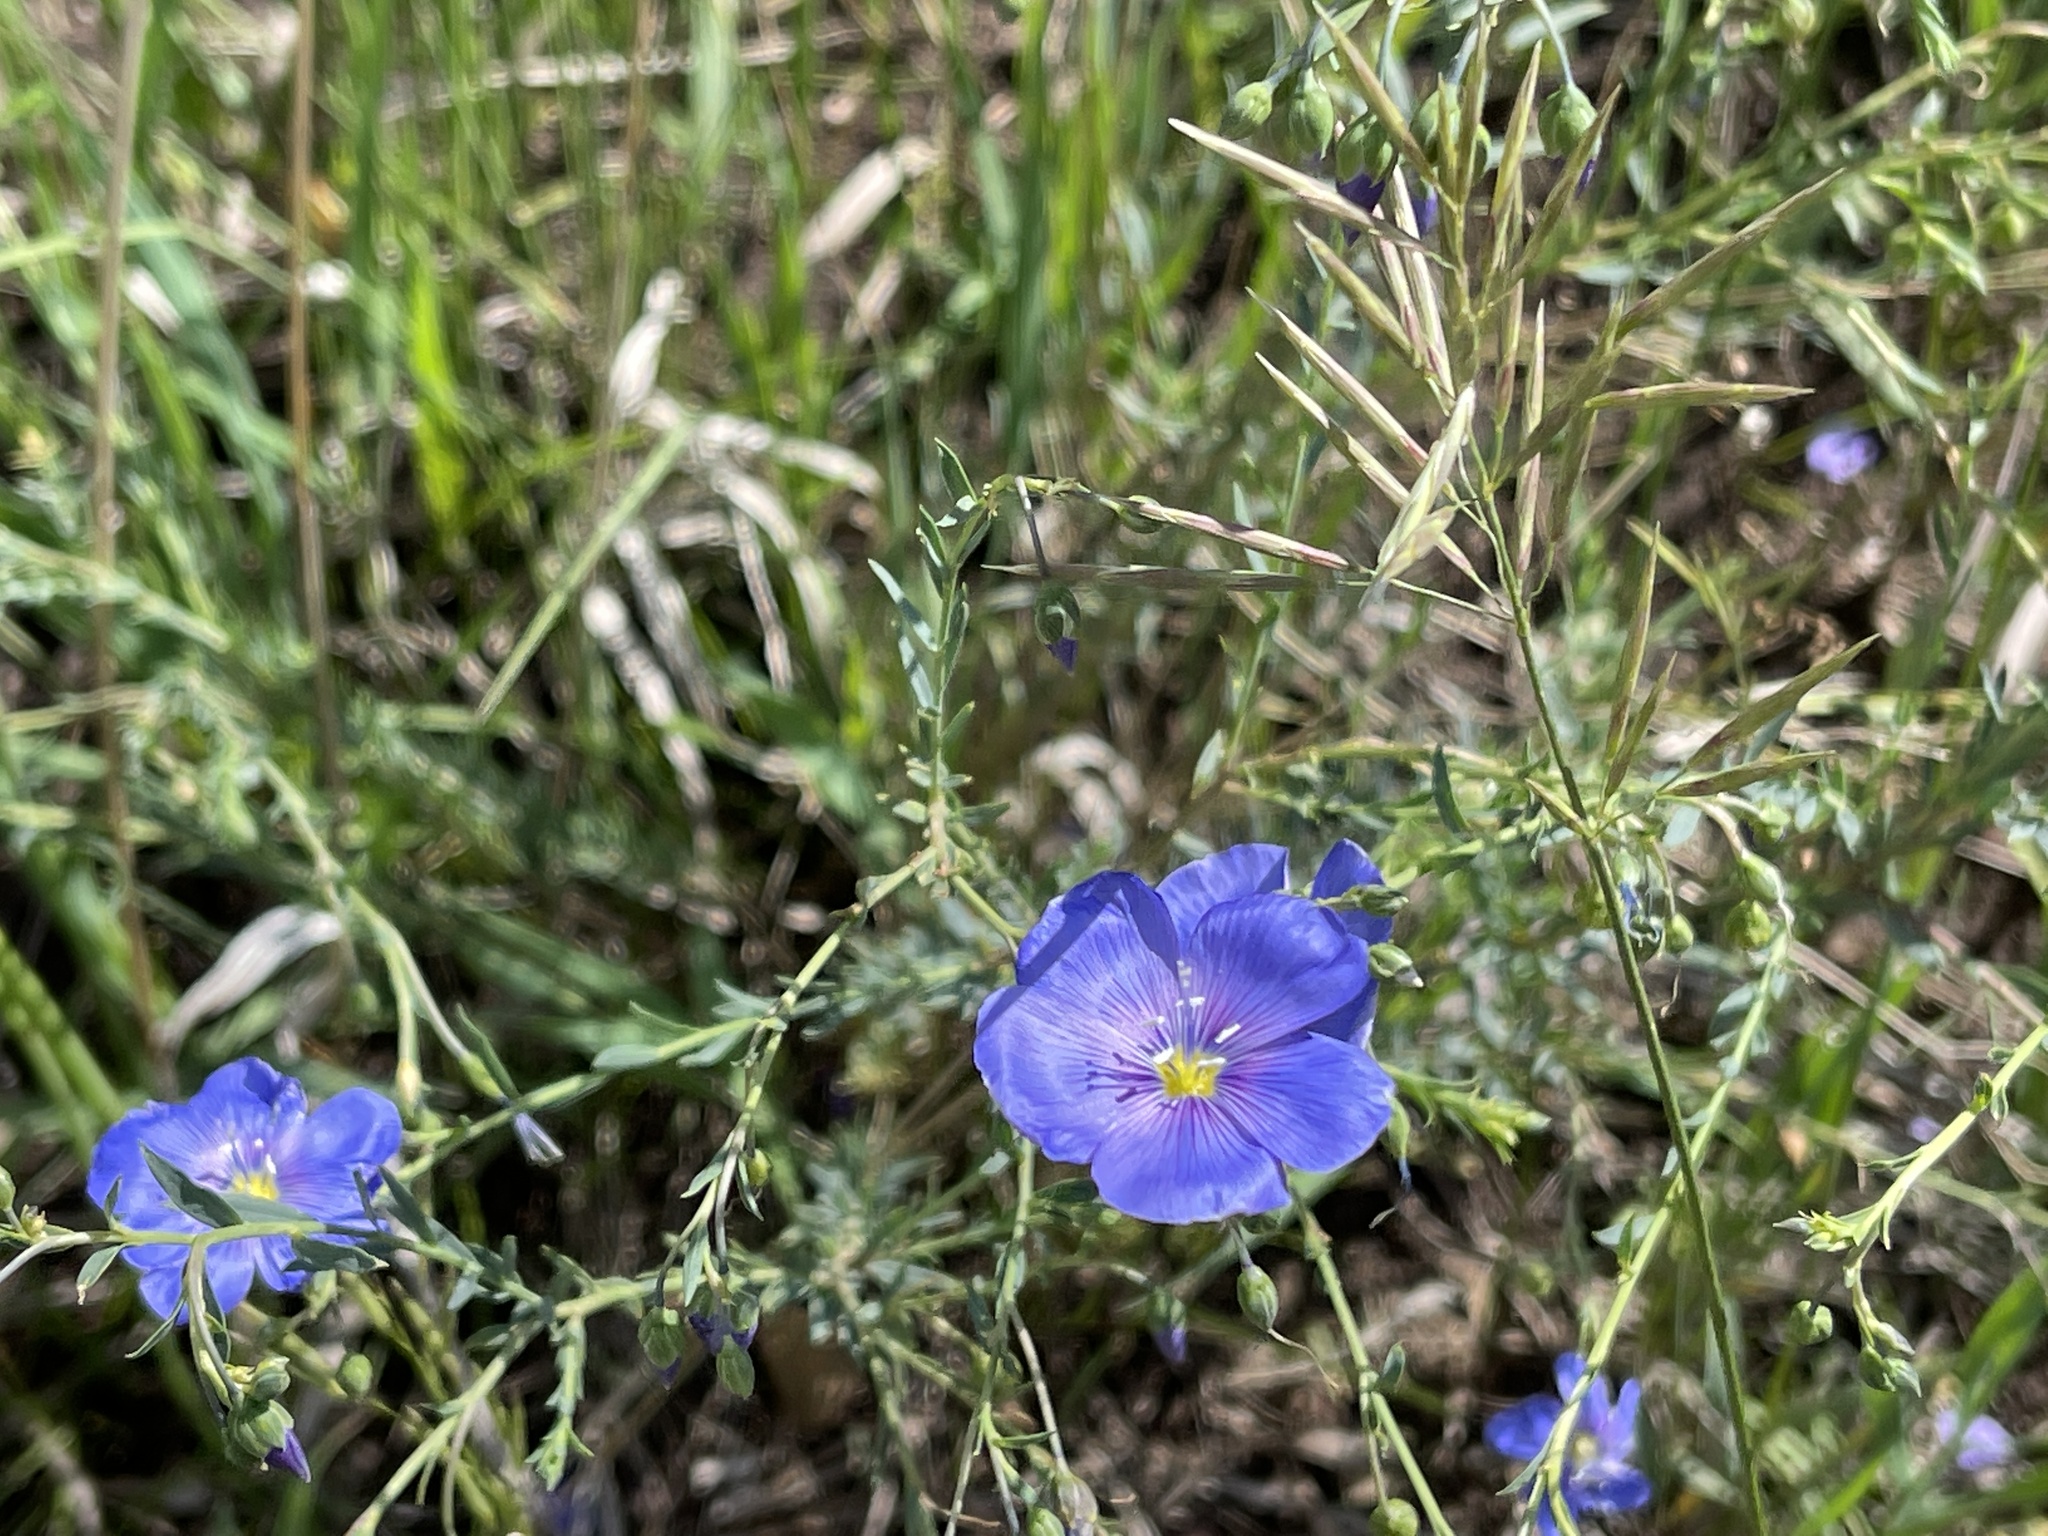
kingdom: Plantae
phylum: Tracheophyta
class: Magnoliopsida
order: Malpighiales
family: Linaceae
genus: Linum
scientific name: Linum lewisii
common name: Prairie flax
